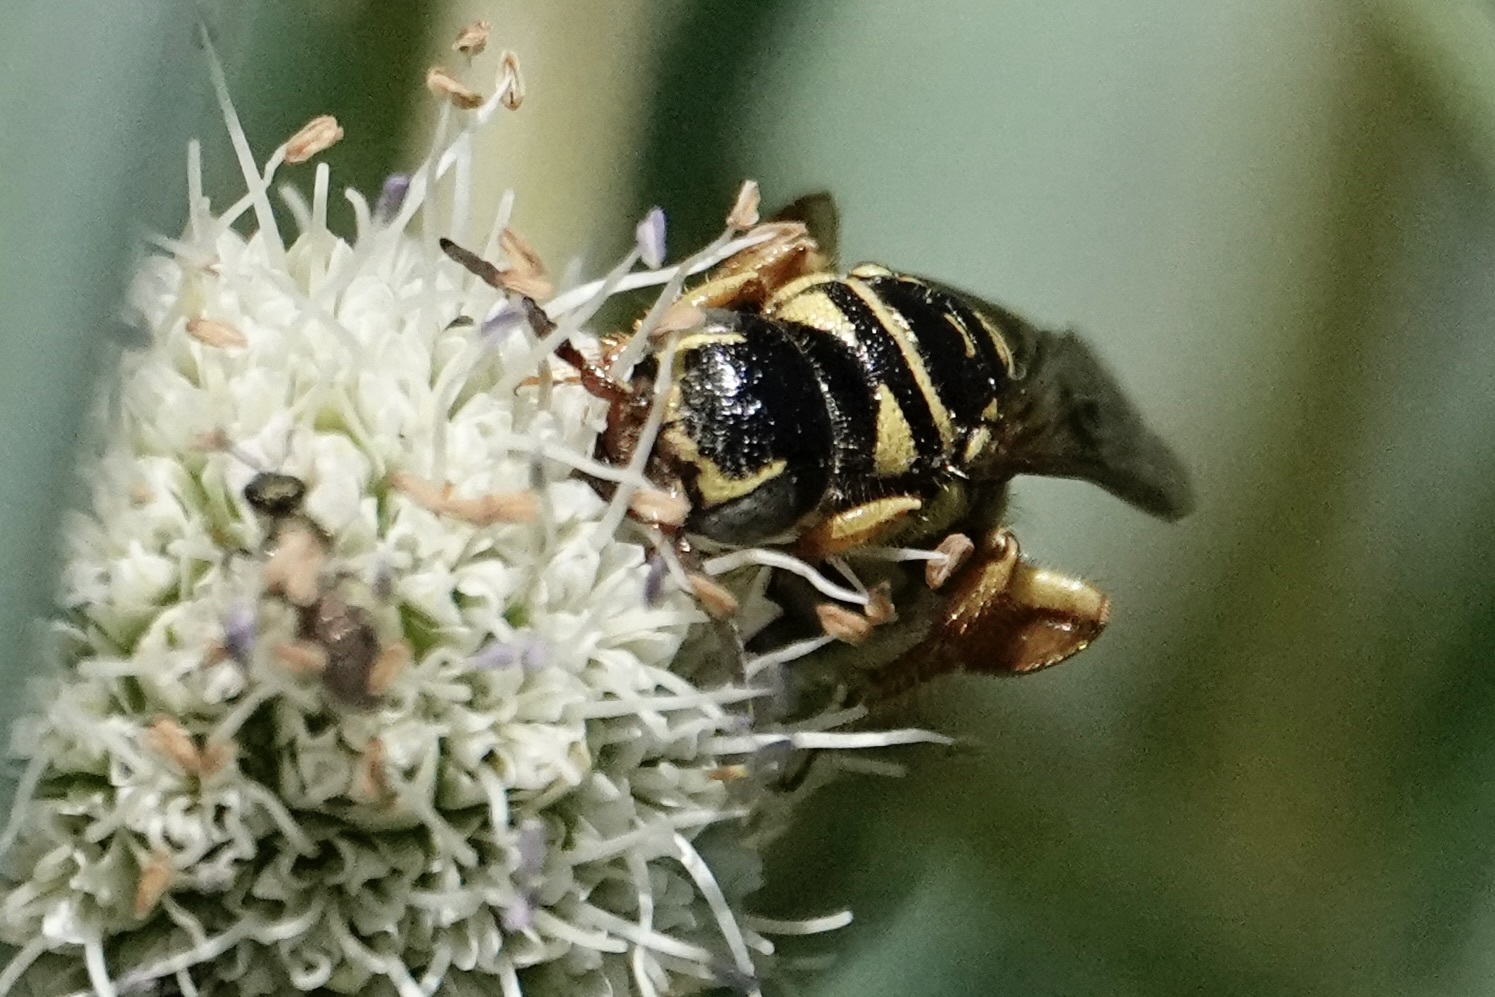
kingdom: Animalia
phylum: Arthropoda
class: Insecta
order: Hymenoptera
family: Tiphiidae
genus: Myzinum
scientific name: Myzinum quinquecinctum
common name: Five-banded thynnid wasp
